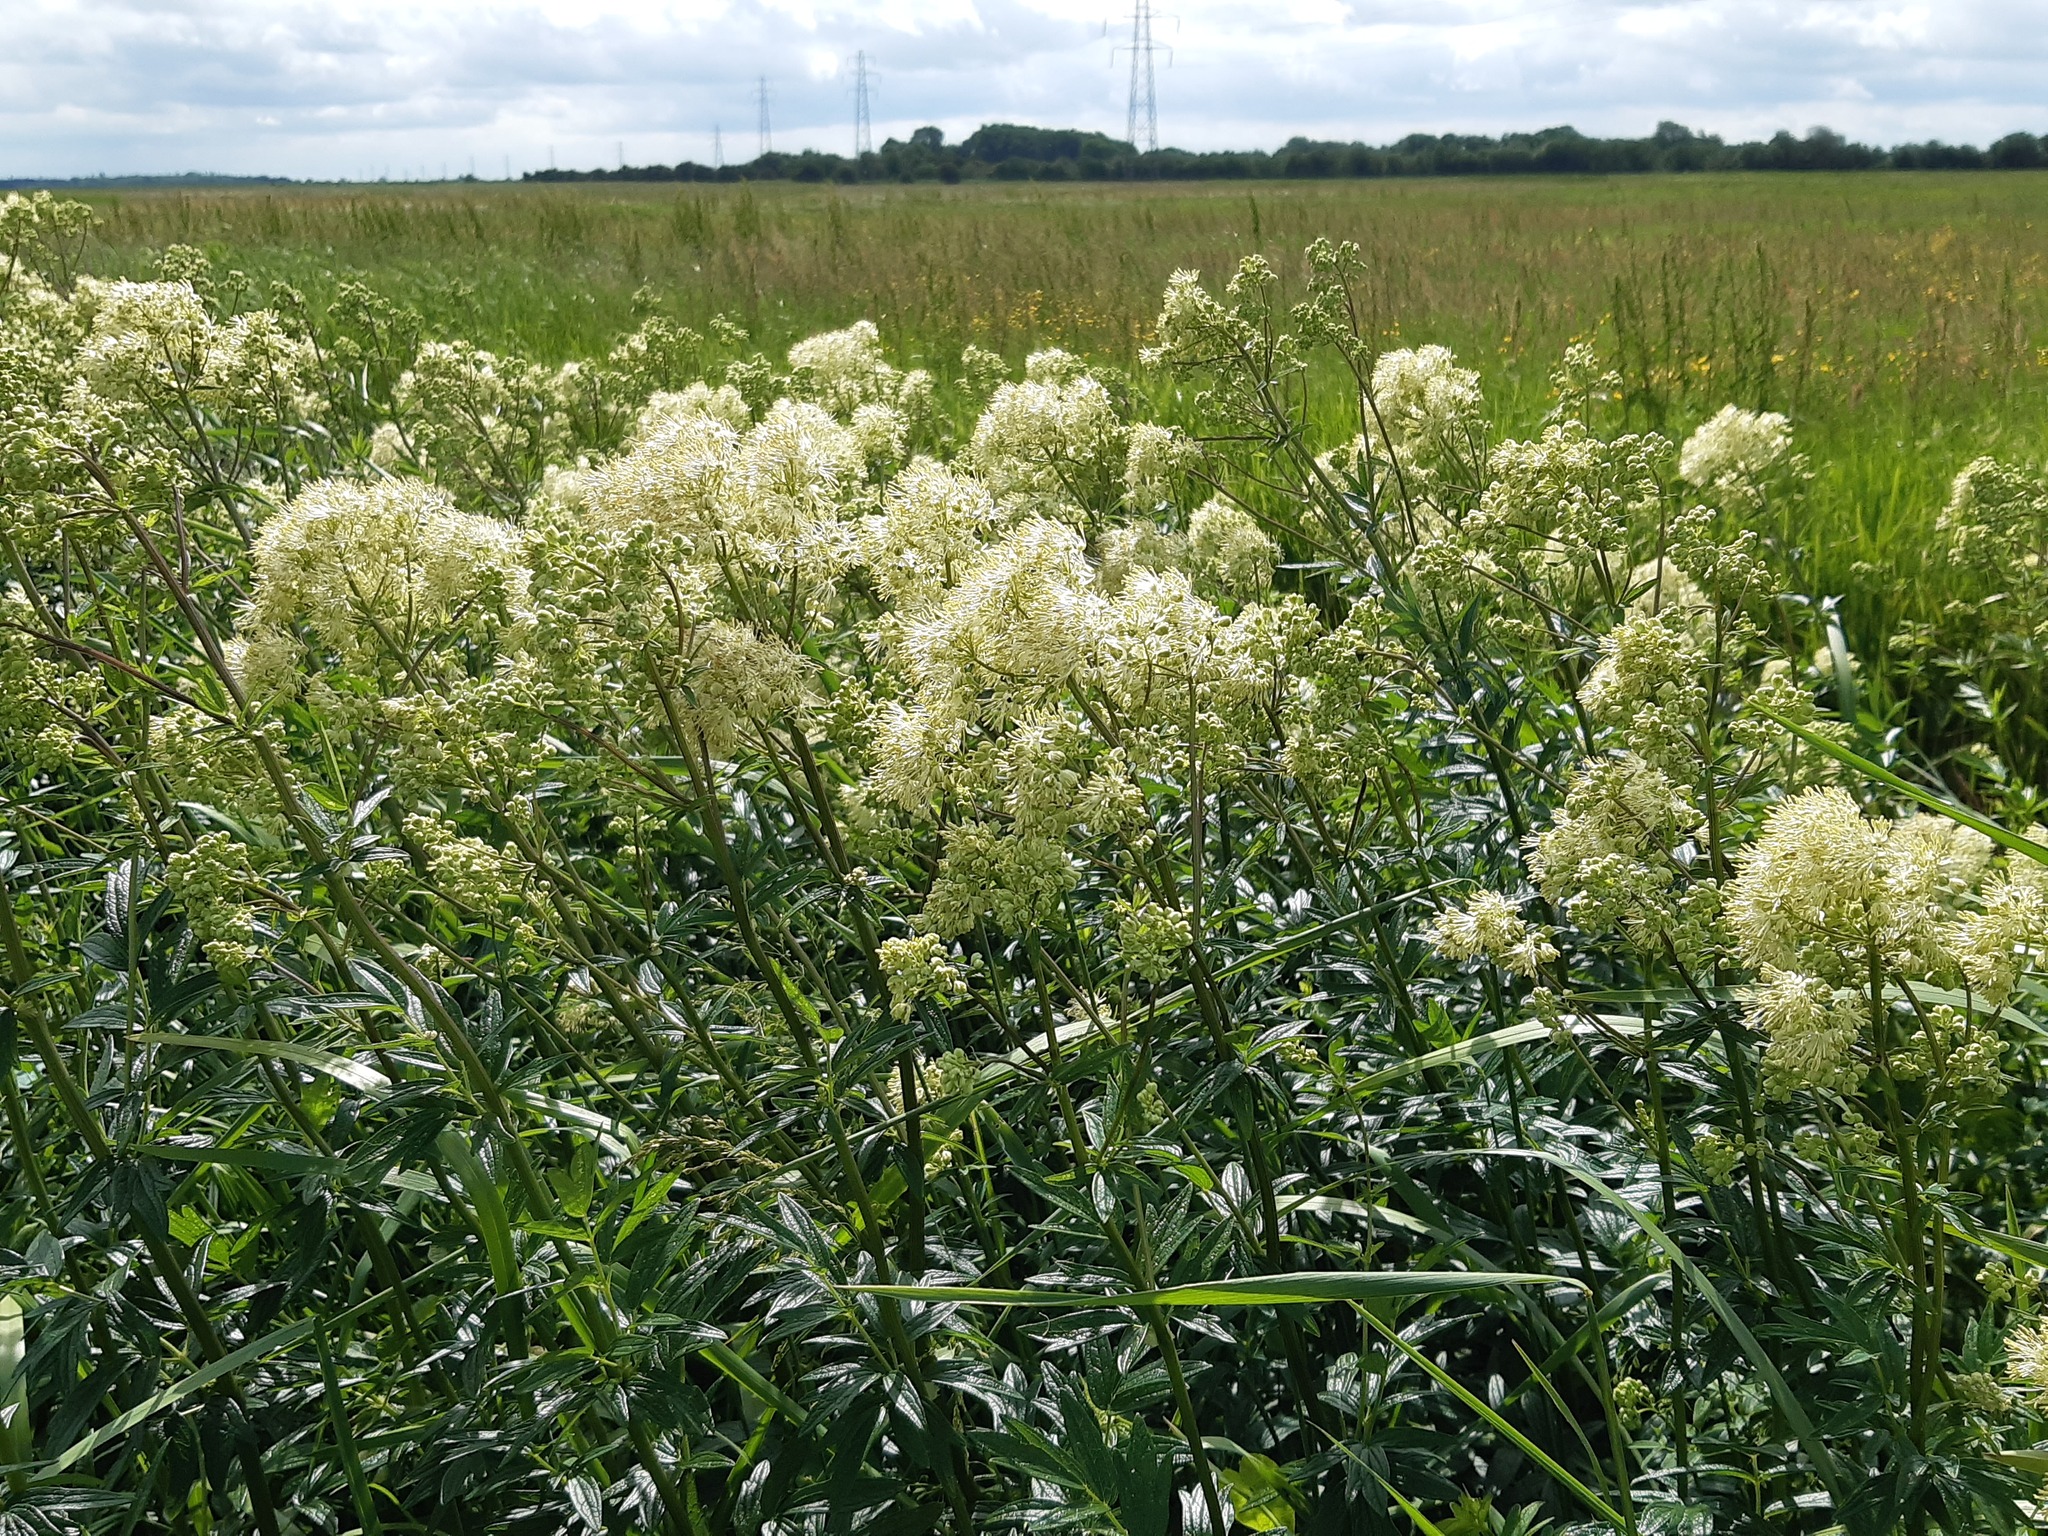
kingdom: Plantae
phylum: Tracheophyta
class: Magnoliopsida
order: Ranunculales
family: Ranunculaceae
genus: Thalictrum
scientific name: Thalictrum flavum
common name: Common meadow-rue
